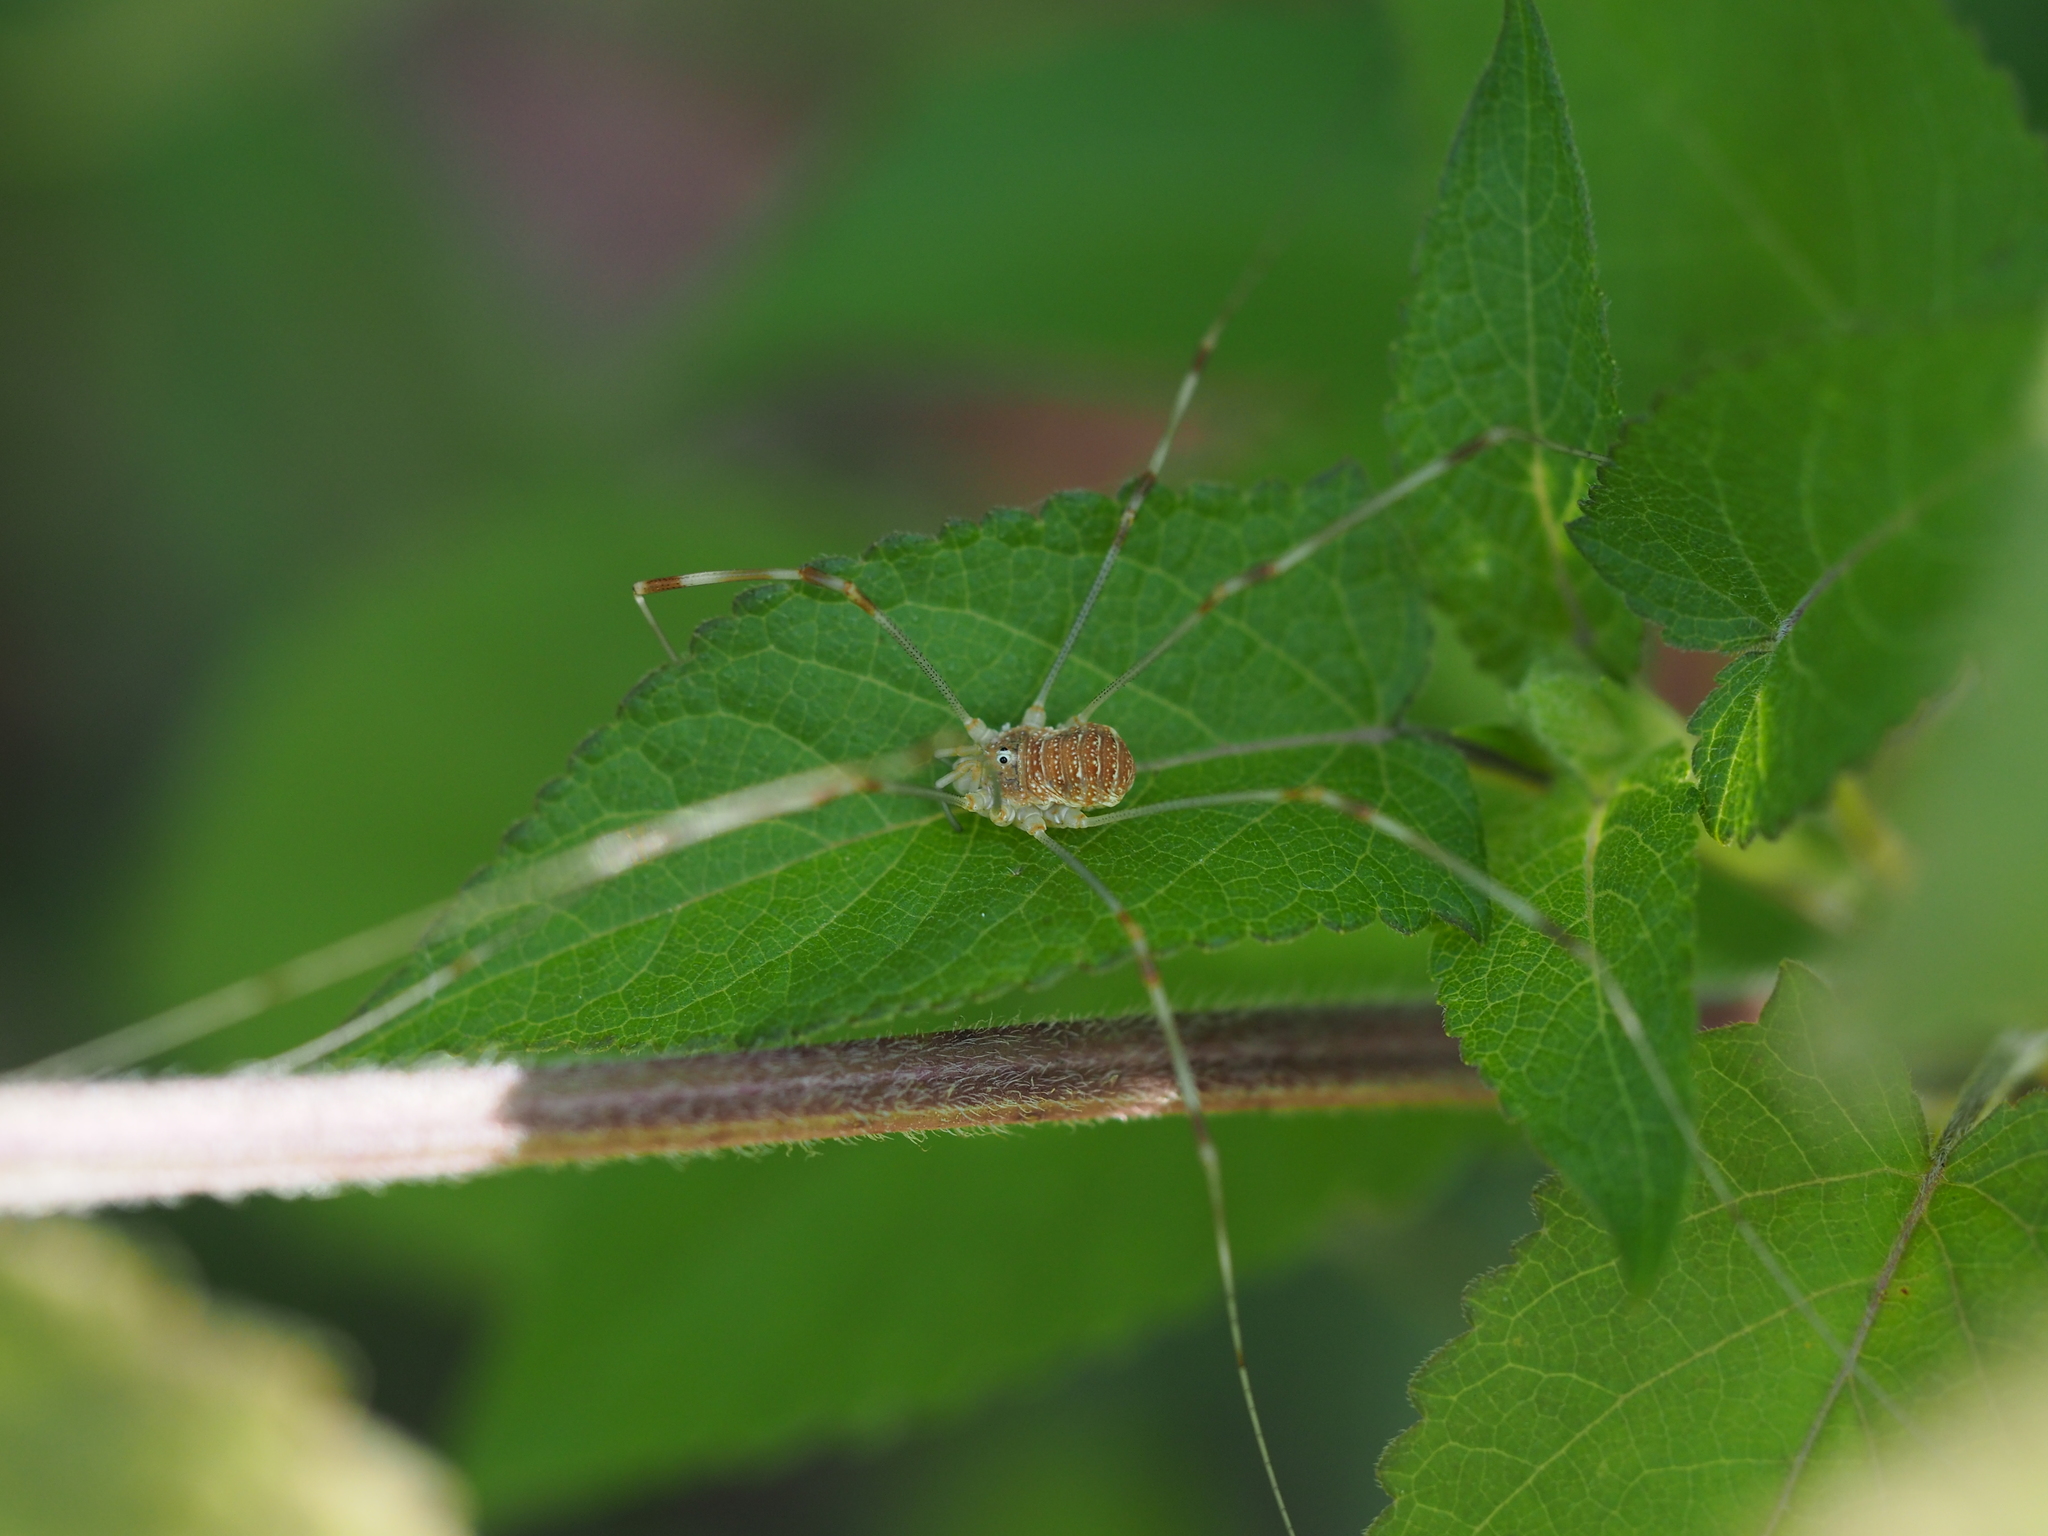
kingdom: Animalia
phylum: Arthropoda
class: Arachnida
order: Opiliones
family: Phalangiidae
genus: Opilio
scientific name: Opilio canestrinii
